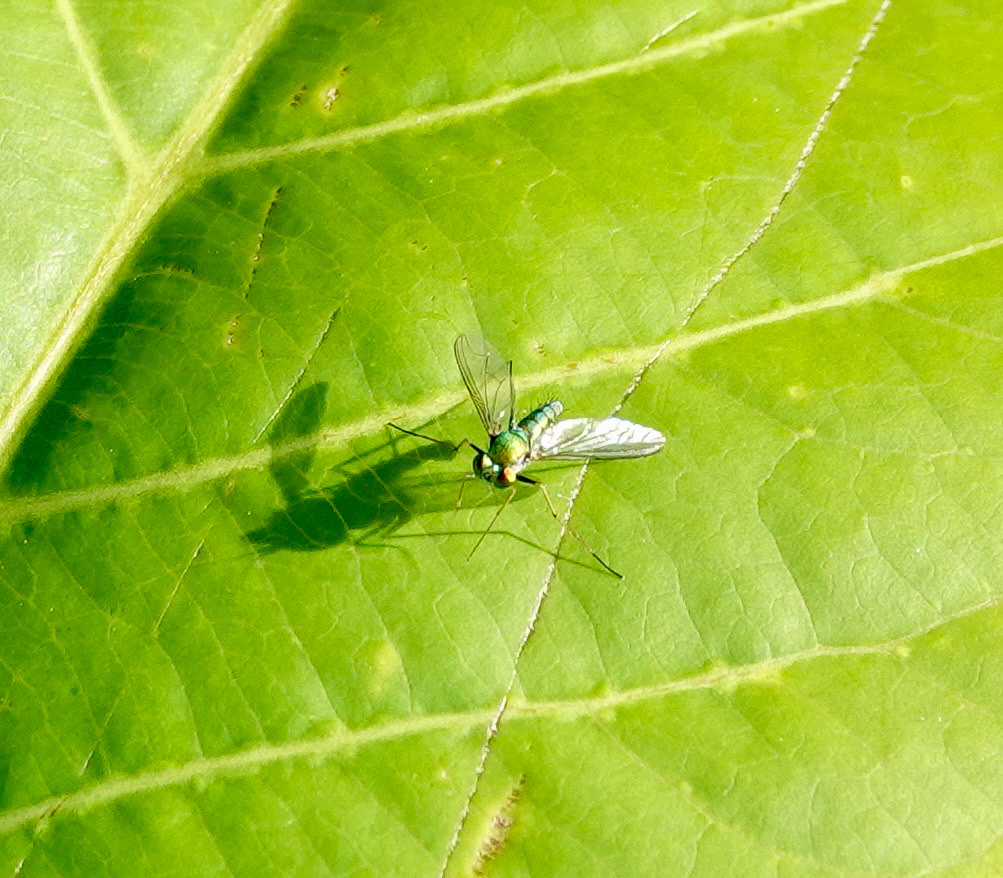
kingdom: Animalia
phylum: Arthropoda
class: Insecta
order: Diptera
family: Dolichopodidae
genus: Chrysosoma
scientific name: Chrysosoma globifer
